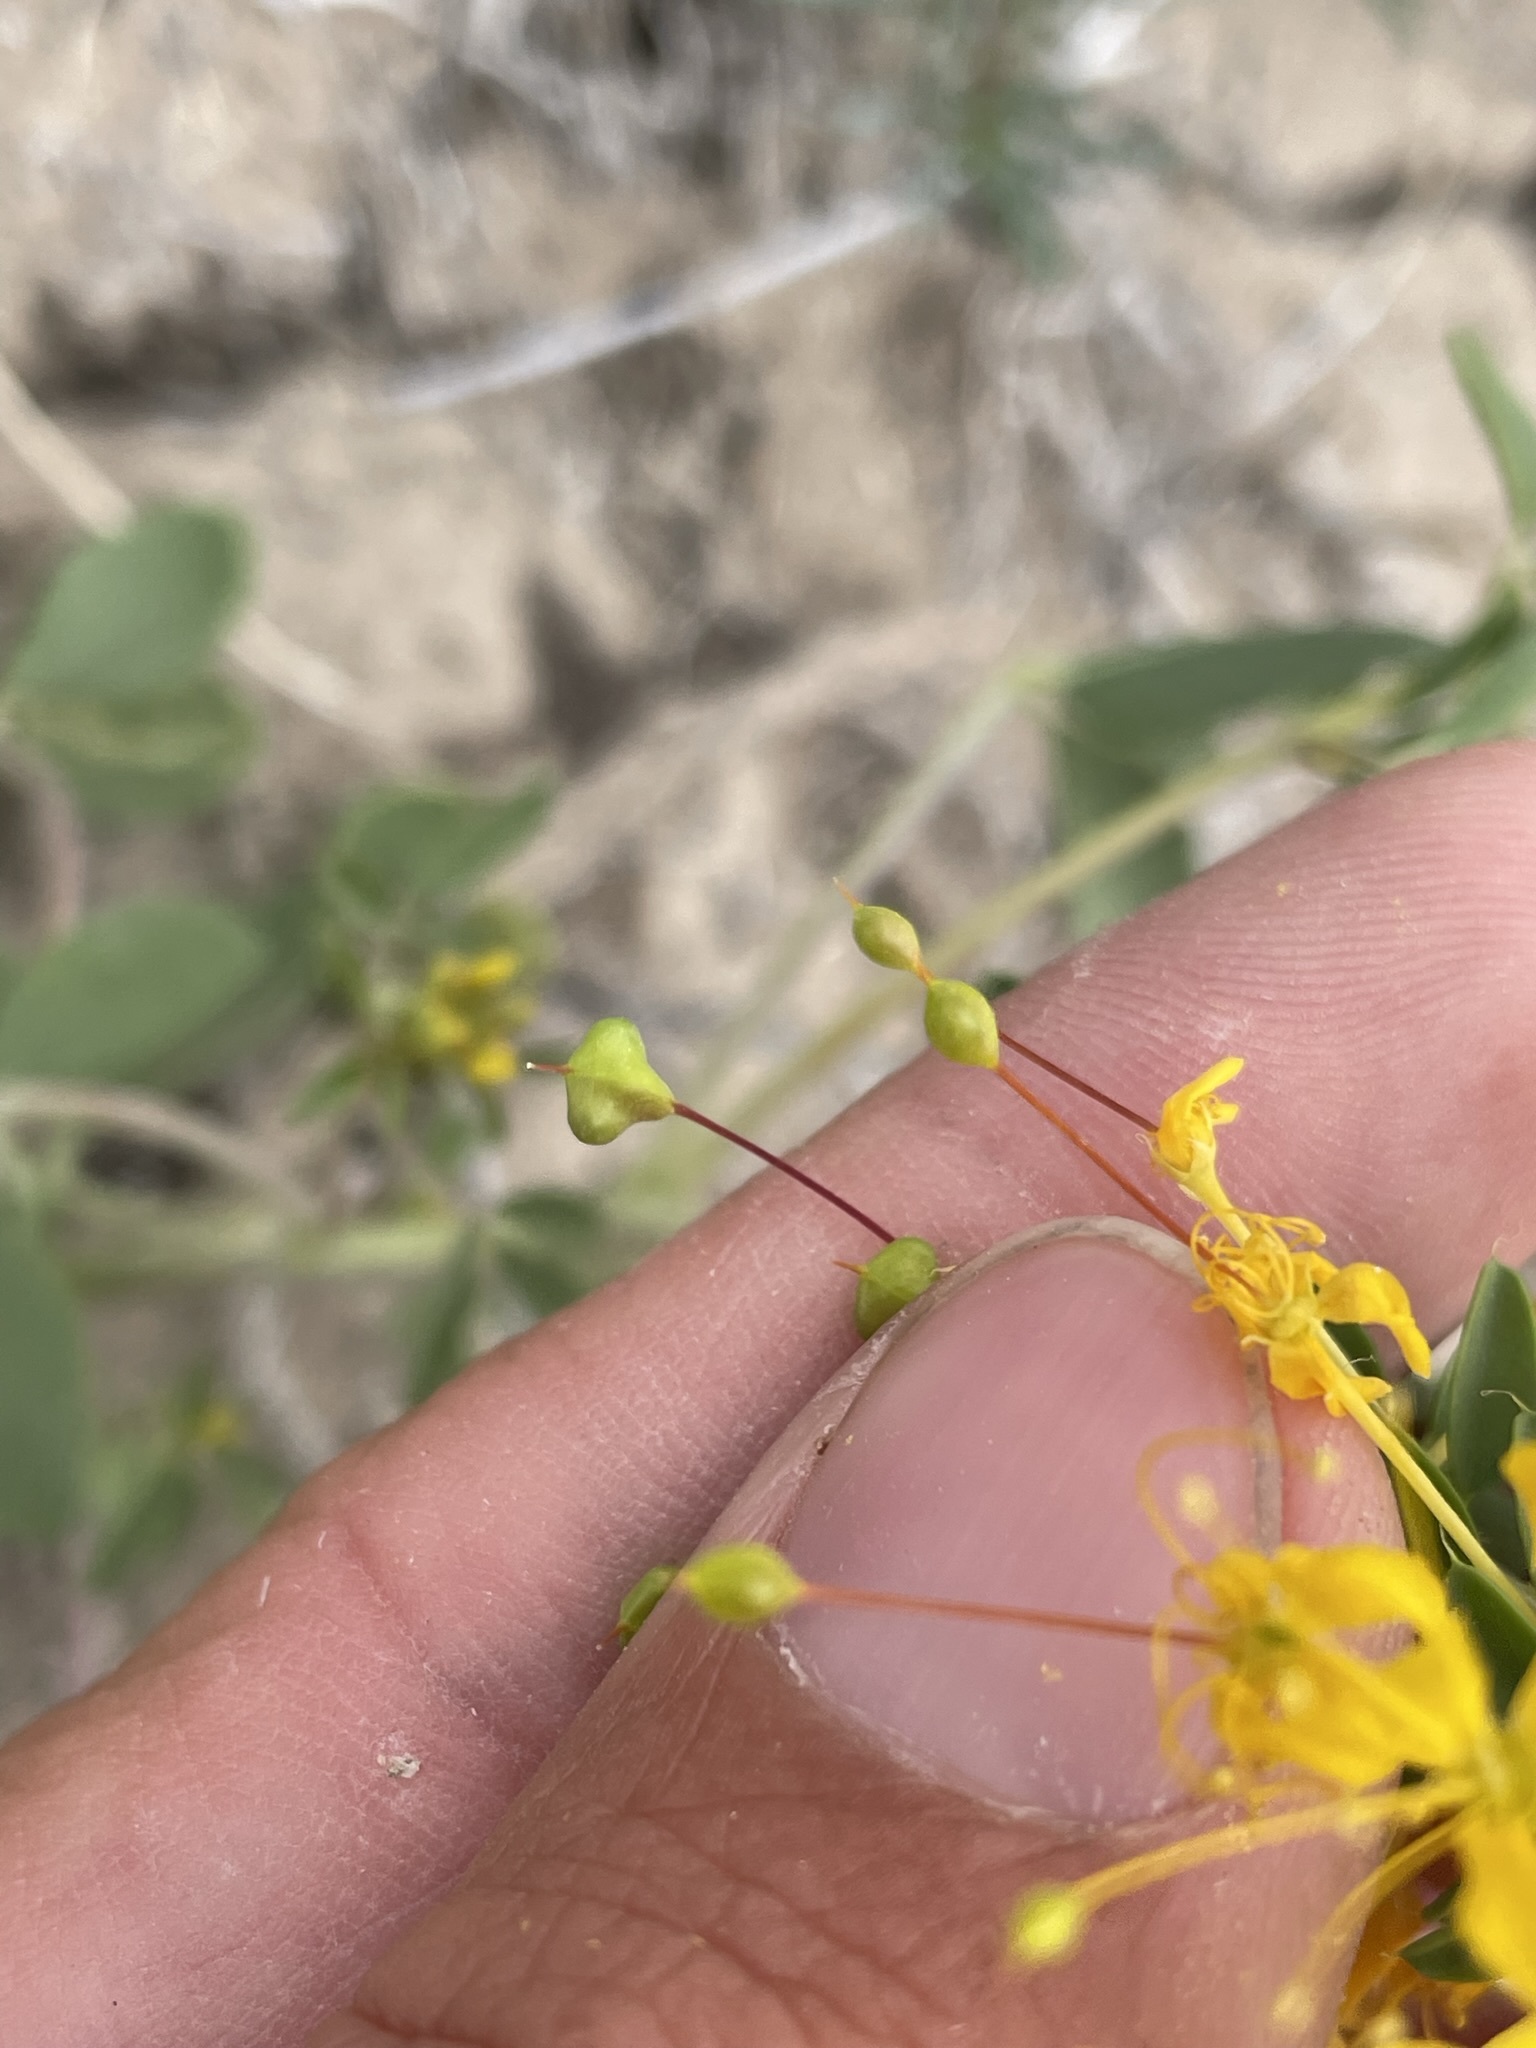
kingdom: Plantae
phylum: Tracheophyta
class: Magnoliopsida
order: Brassicales
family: Cleomaceae
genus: Cleomella
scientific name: Cleomella hillmanii
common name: Desert stinkweed
